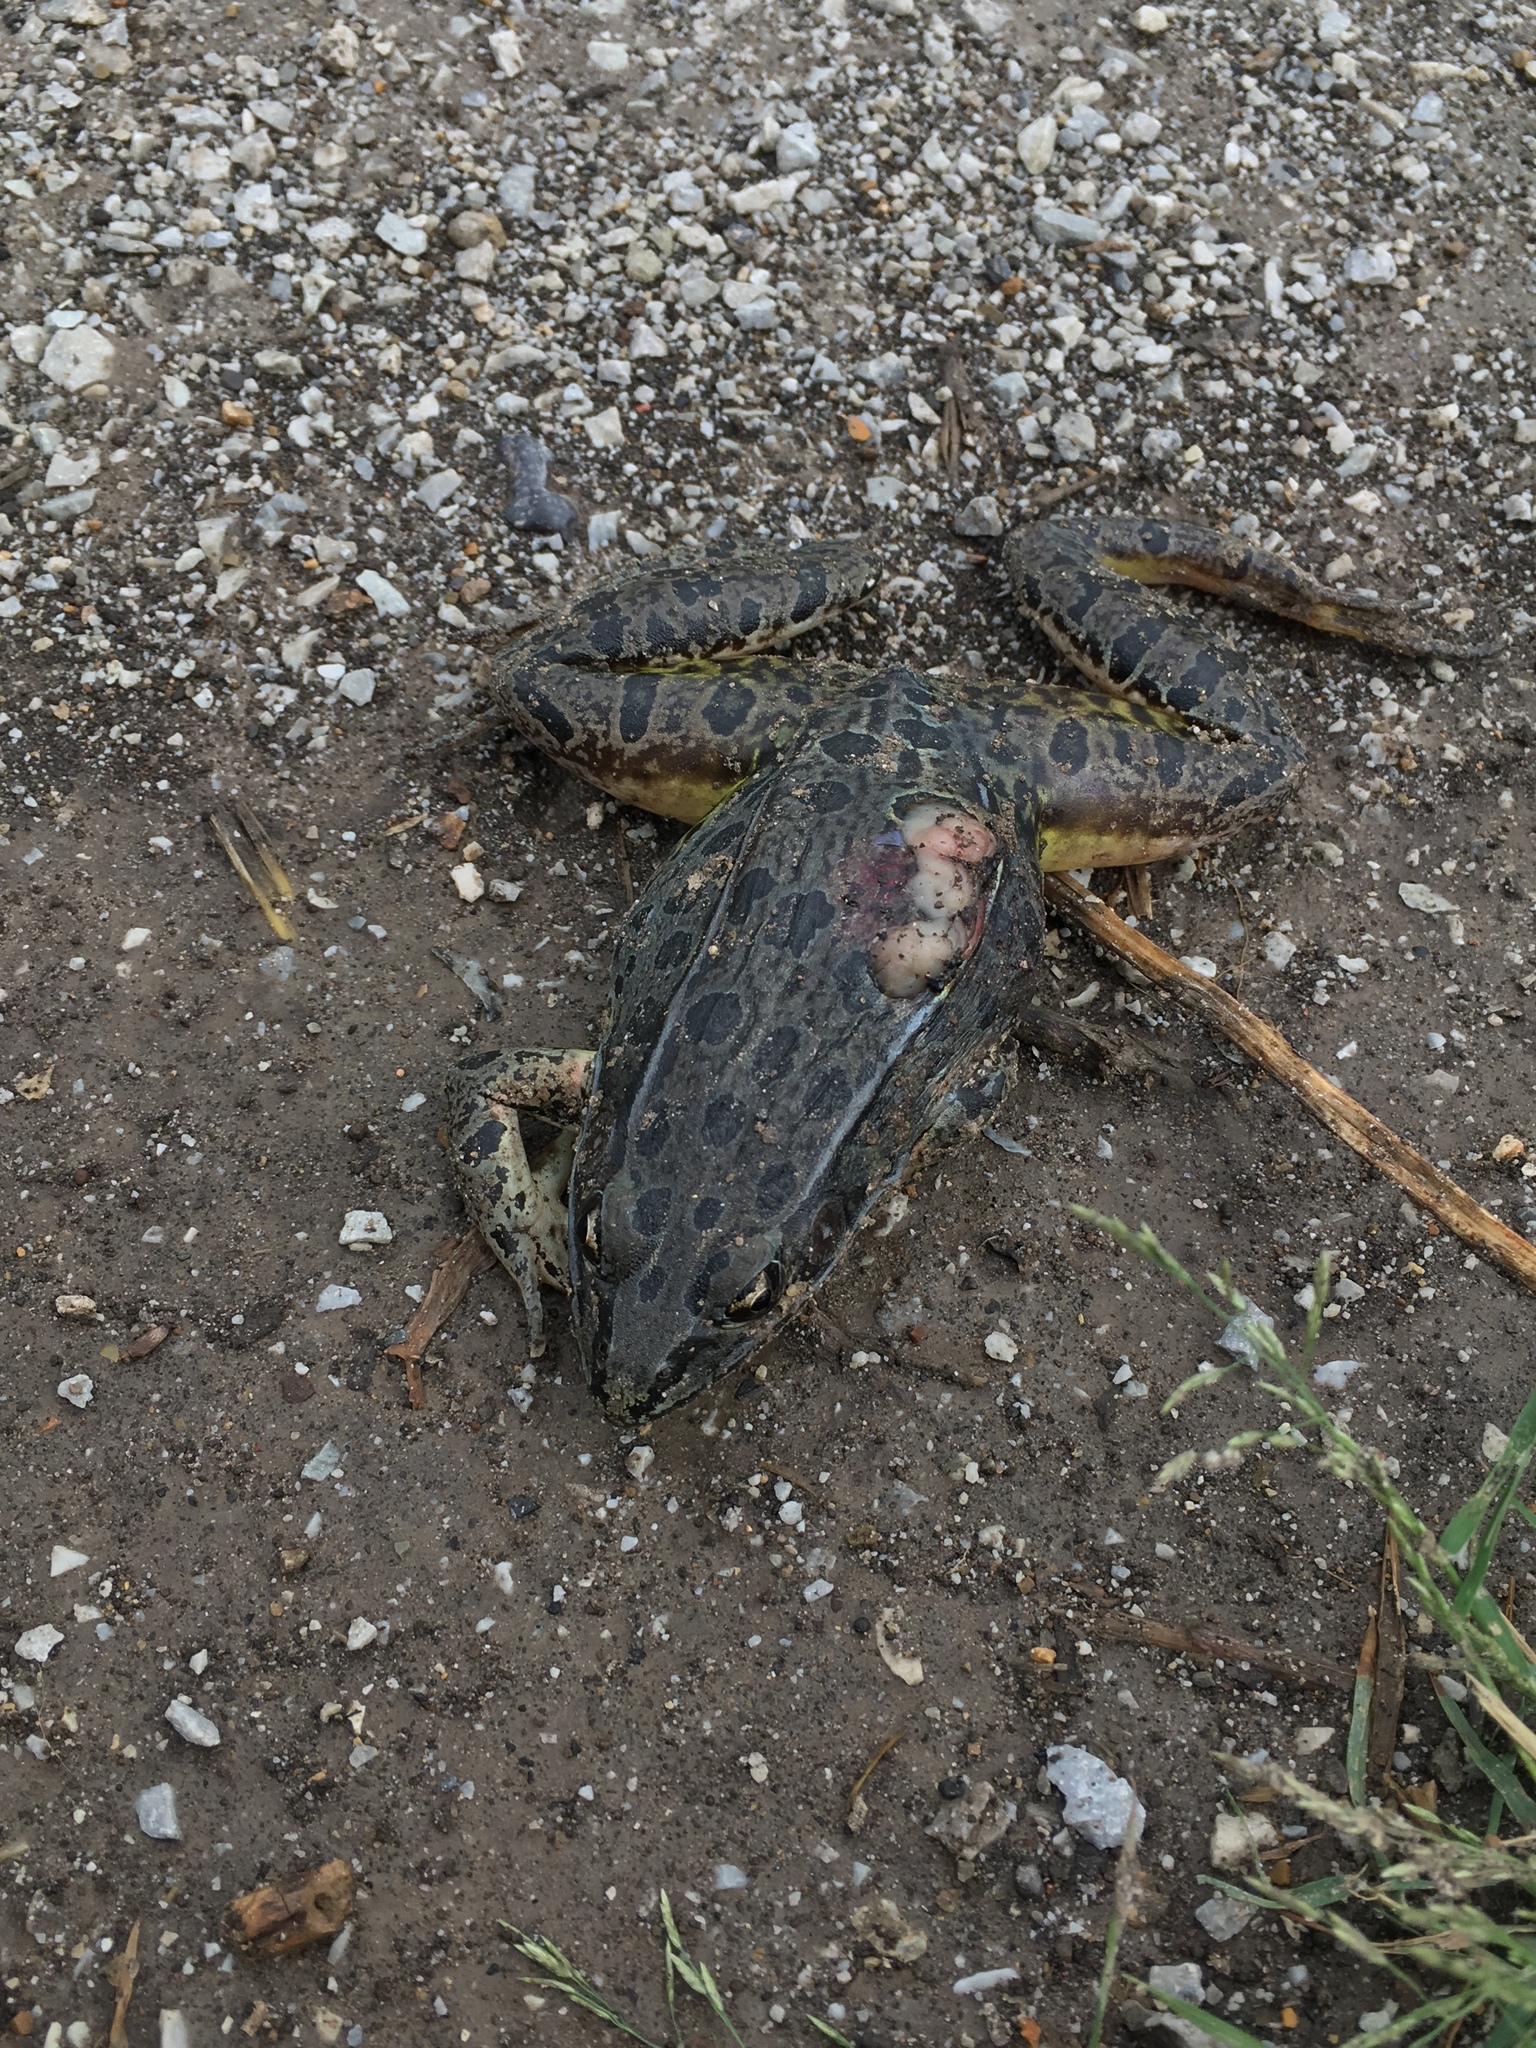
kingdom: Animalia
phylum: Chordata
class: Amphibia
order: Anura
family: Ranidae
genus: Lithobates
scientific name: Lithobates pipiens
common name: Northern leopard frog
